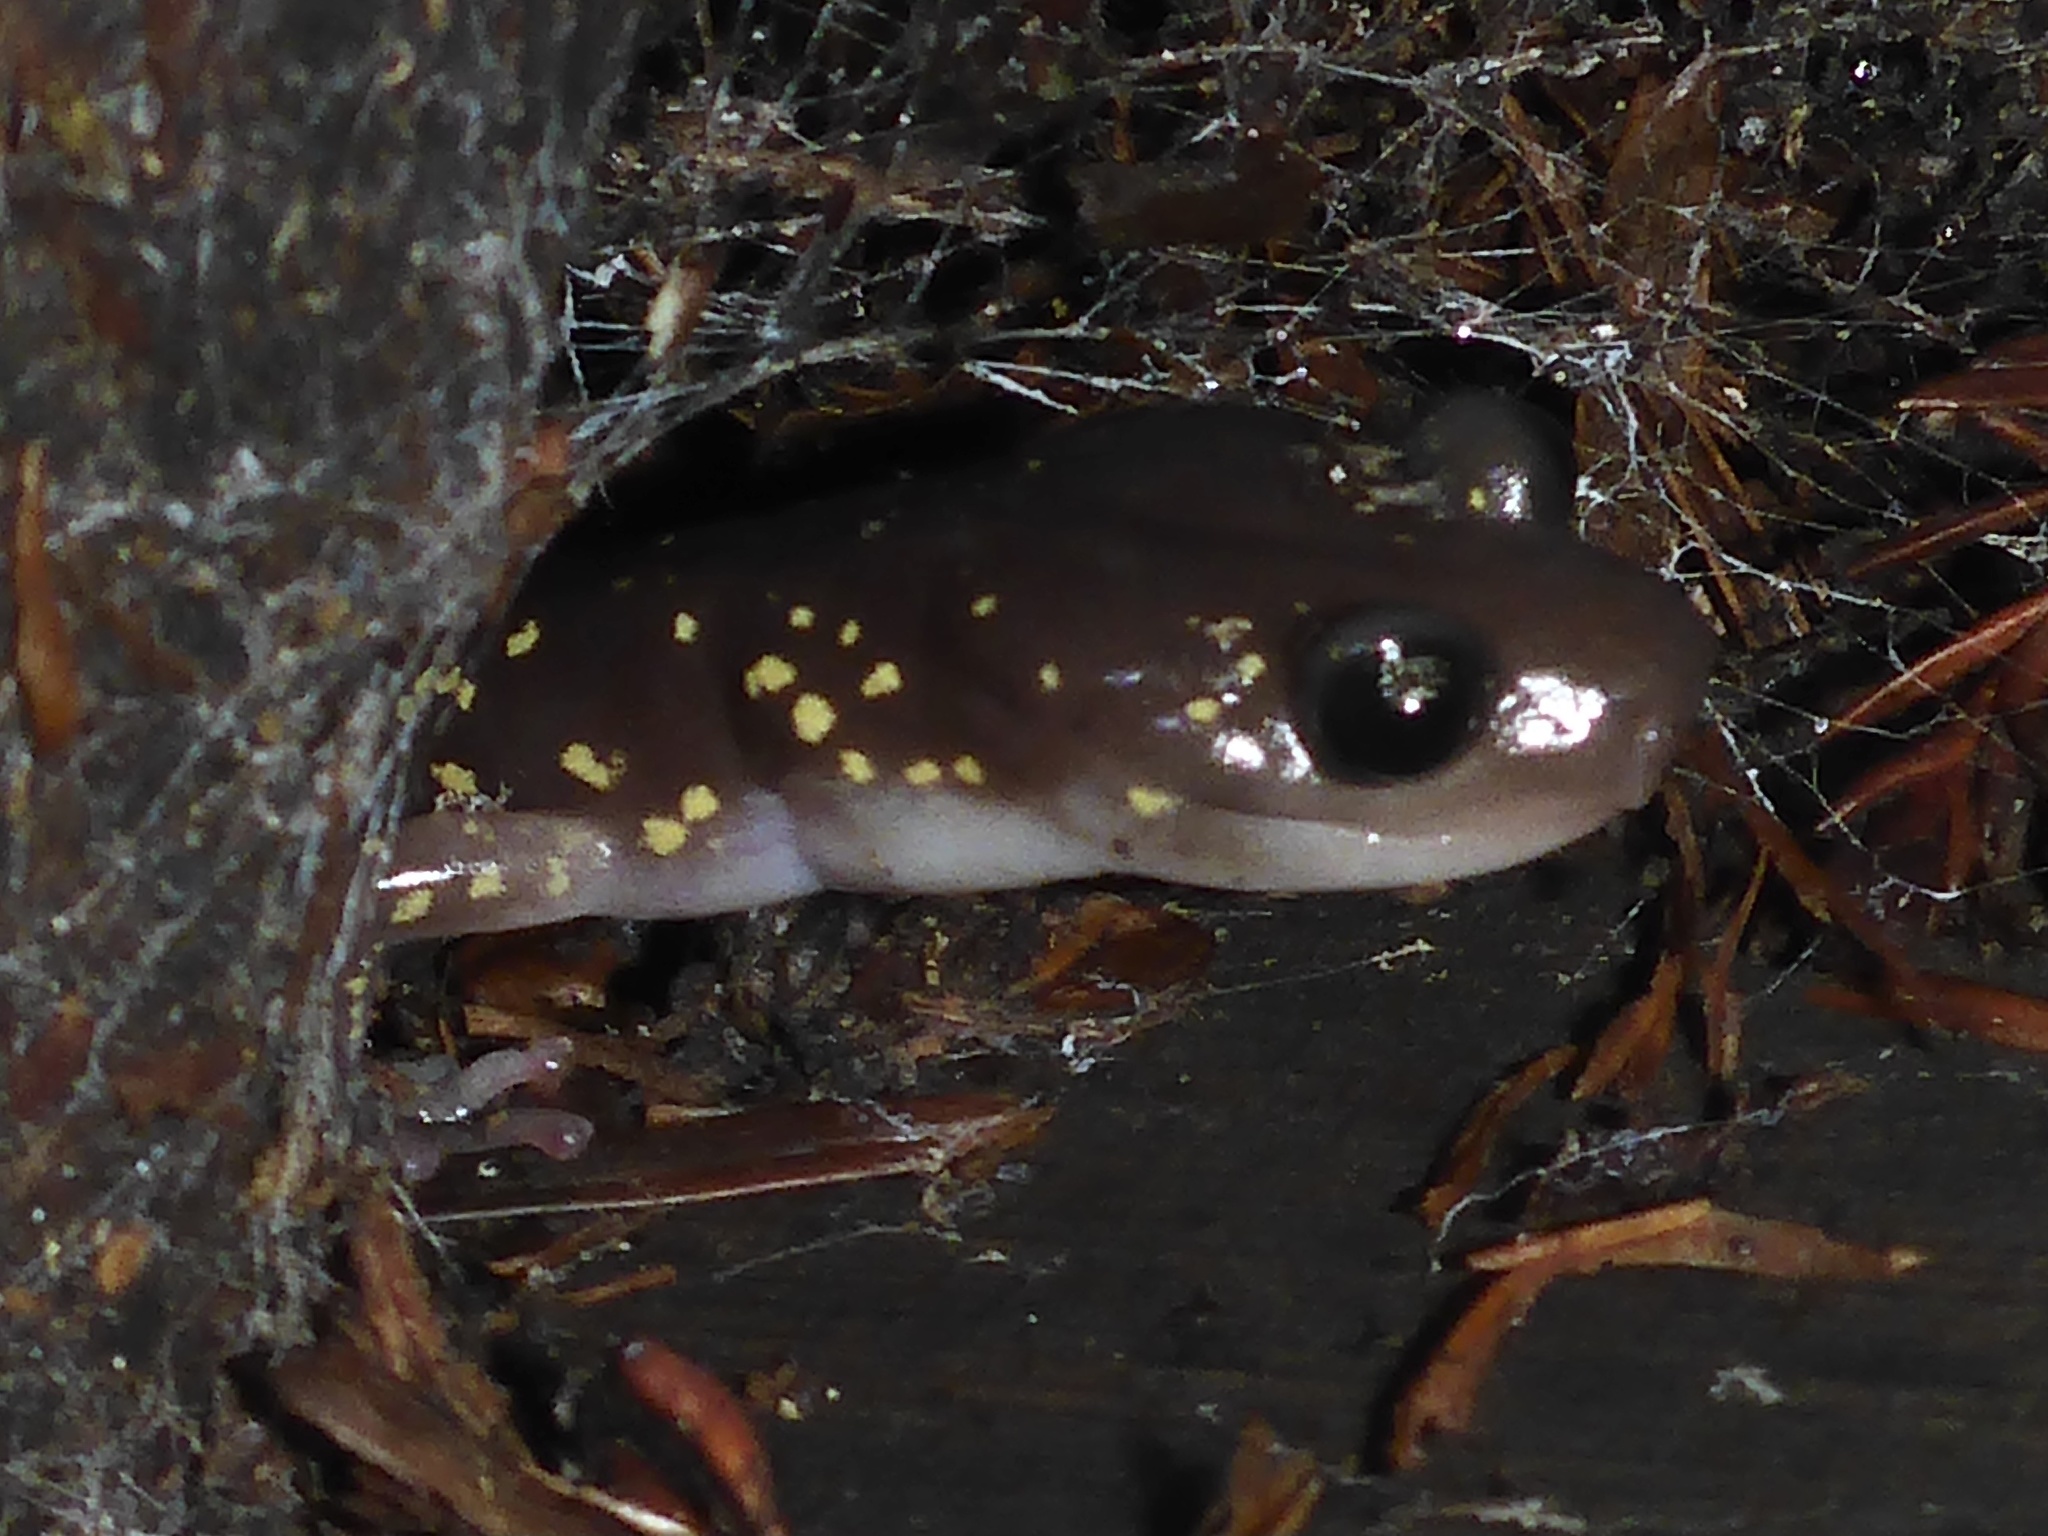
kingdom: Animalia
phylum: Chordata
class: Amphibia
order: Caudata
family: Plethodontidae
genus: Aneides
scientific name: Aneides lugubris
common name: Arboreal salamander
